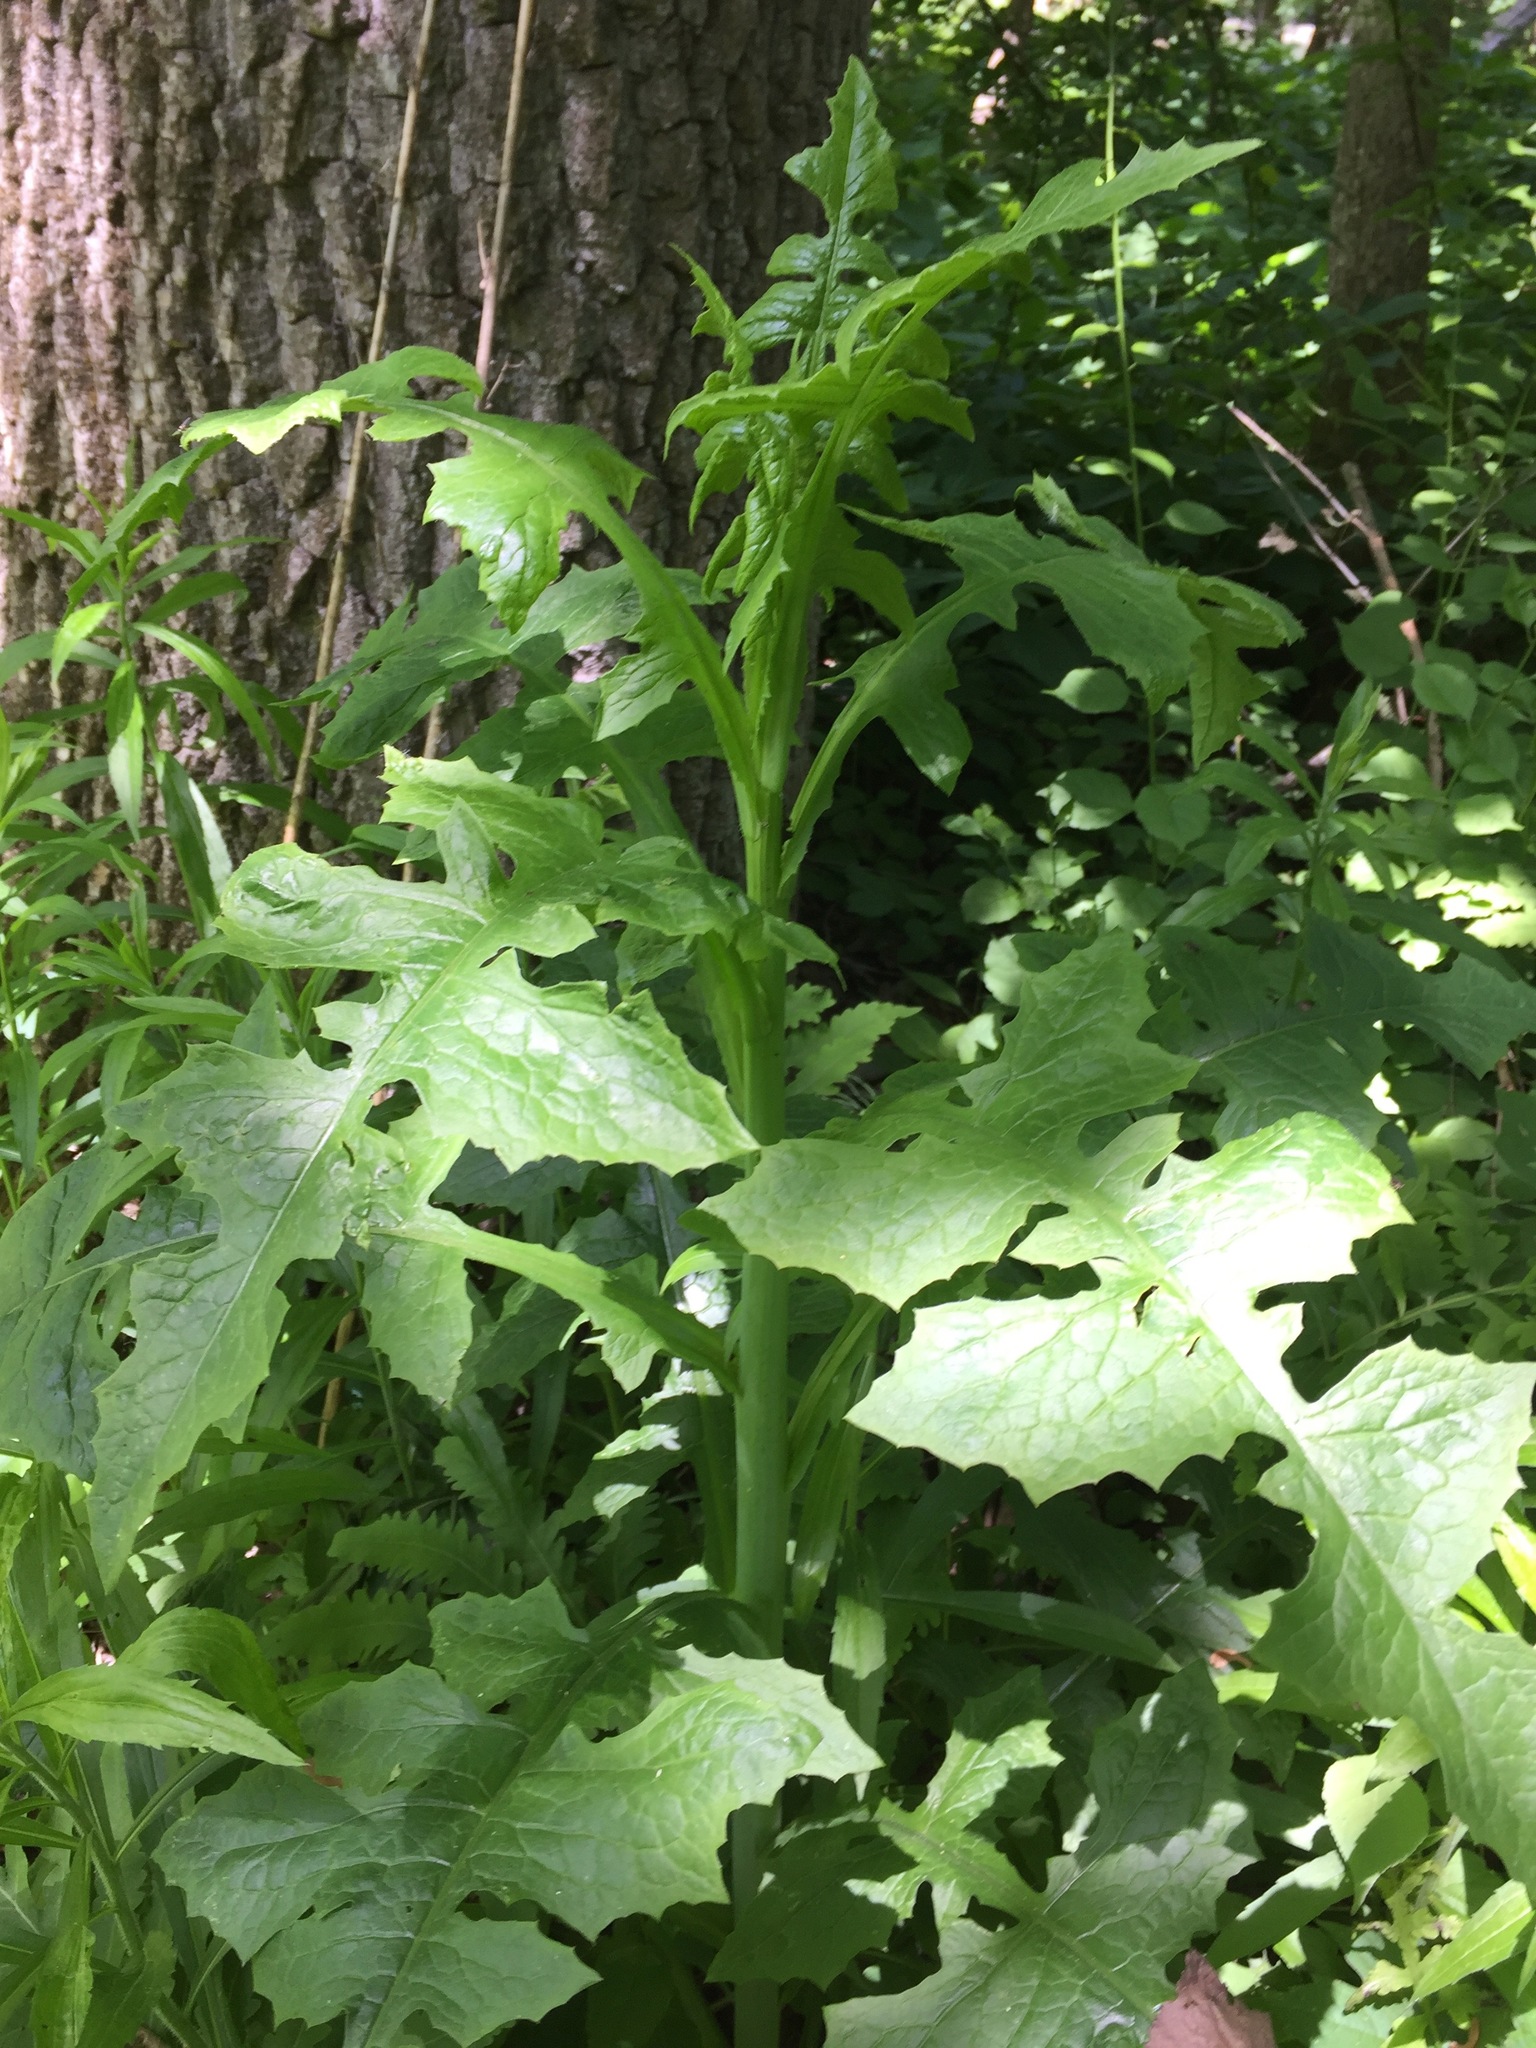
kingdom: Plantae
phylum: Tracheophyta
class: Magnoliopsida
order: Asterales
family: Asteraceae
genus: Lactuca
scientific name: Lactuca biennis
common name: Blue wood lettuce
